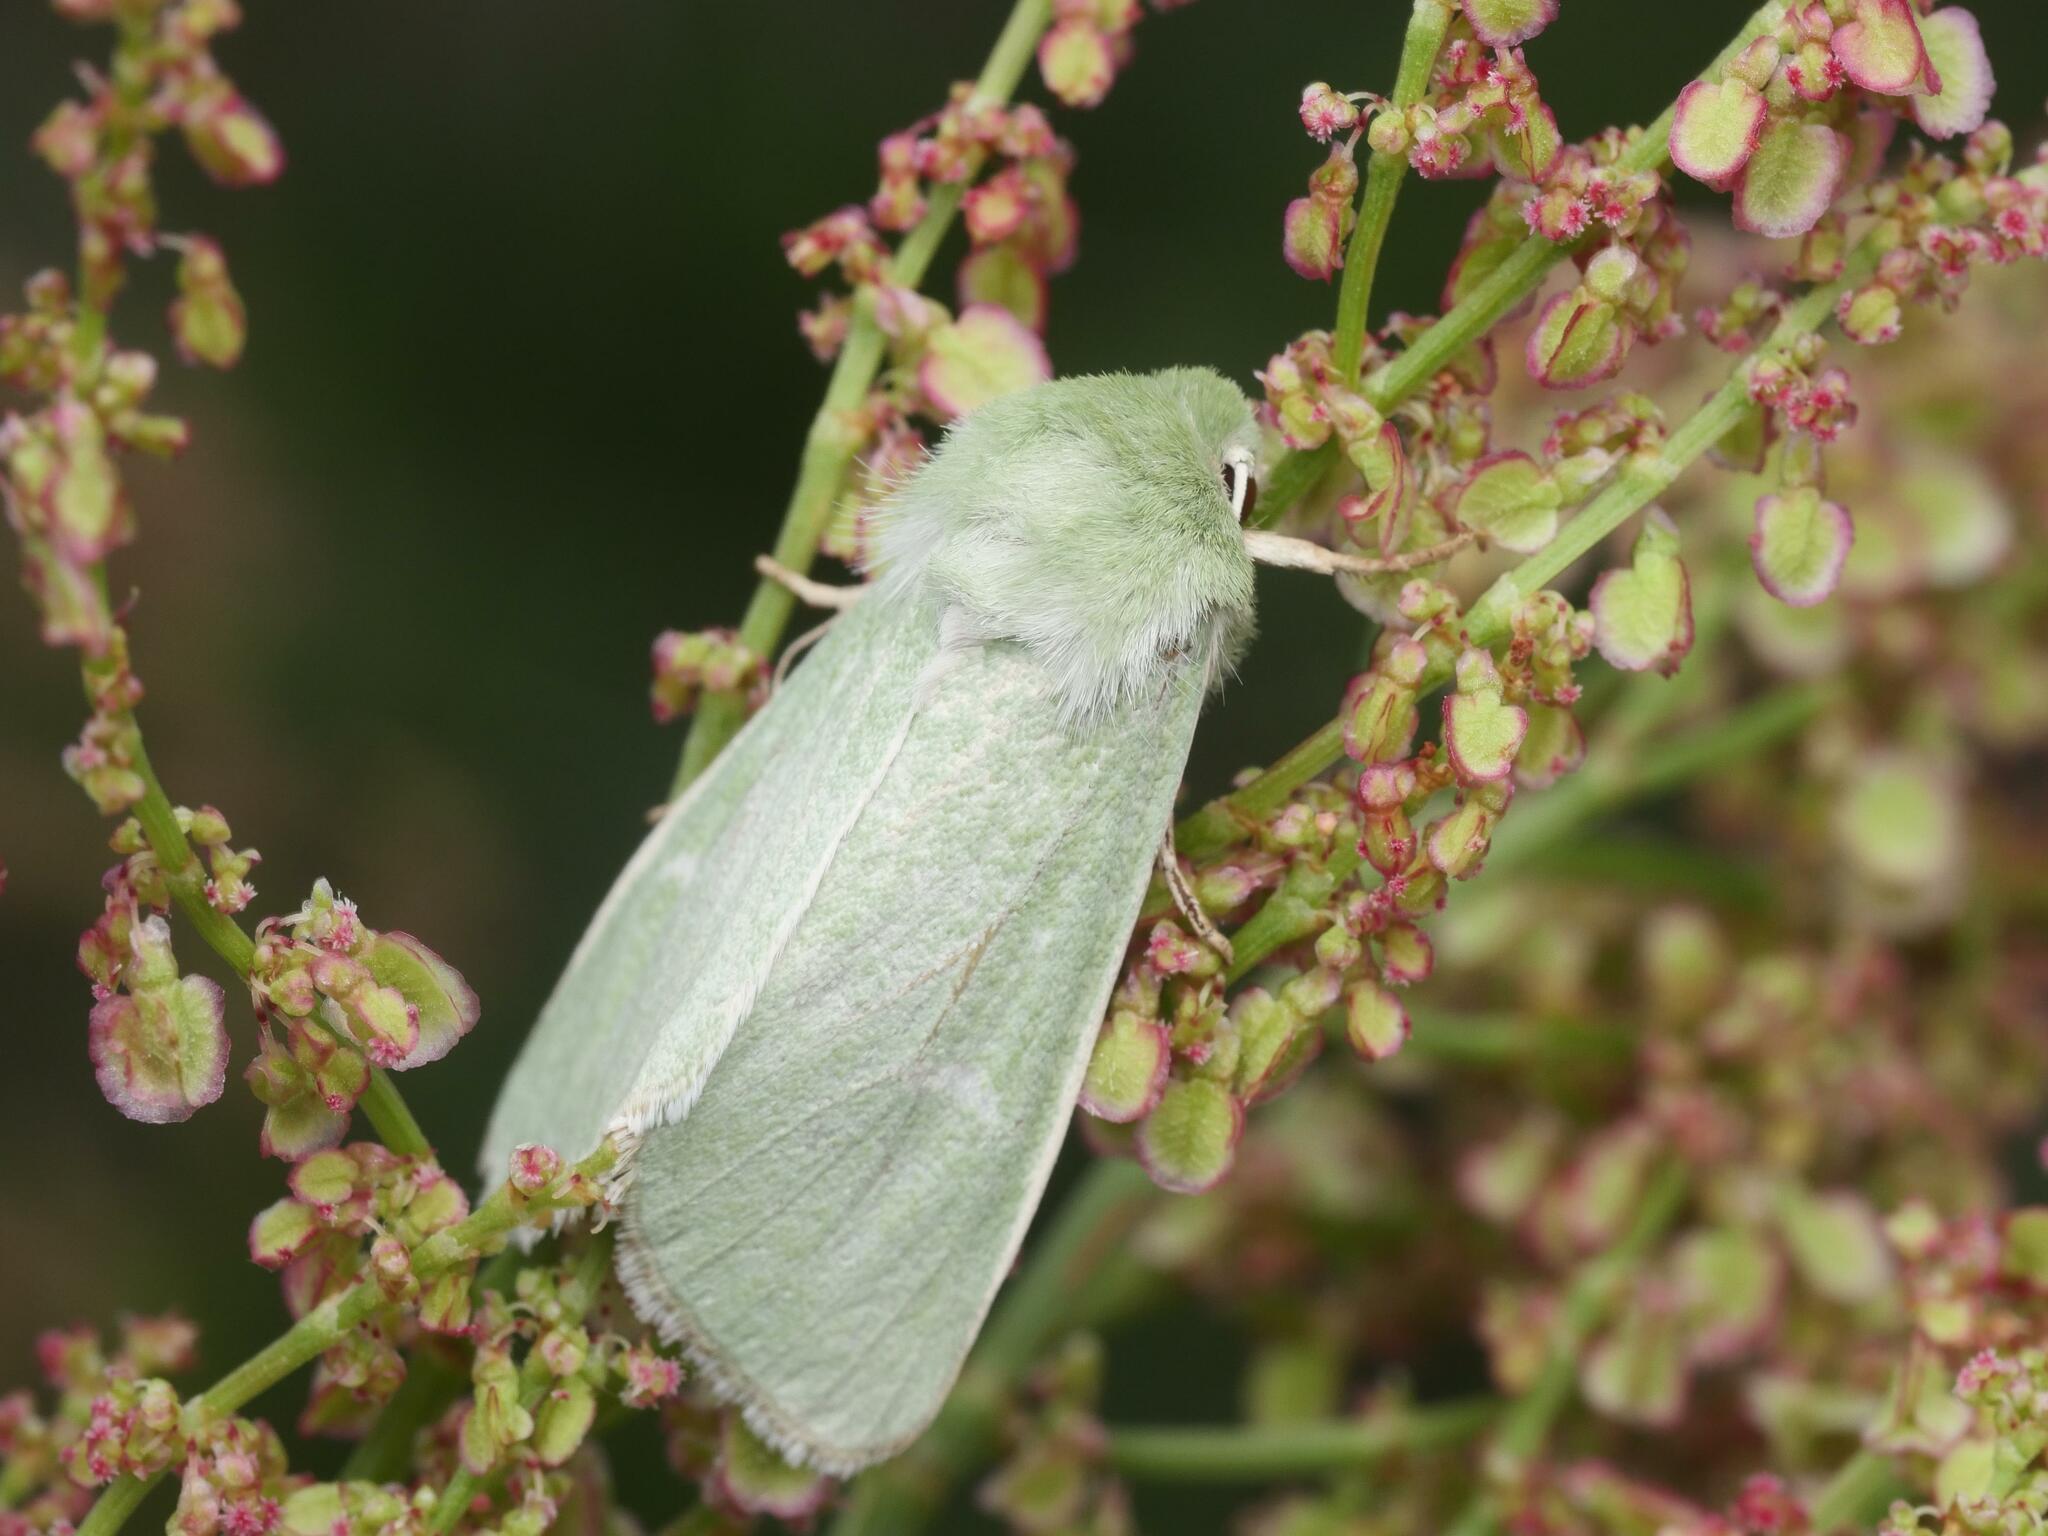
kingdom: Animalia
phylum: Arthropoda
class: Insecta
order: Lepidoptera
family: Noctuidae
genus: Calamia
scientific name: Calamia tridens
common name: Burren green
